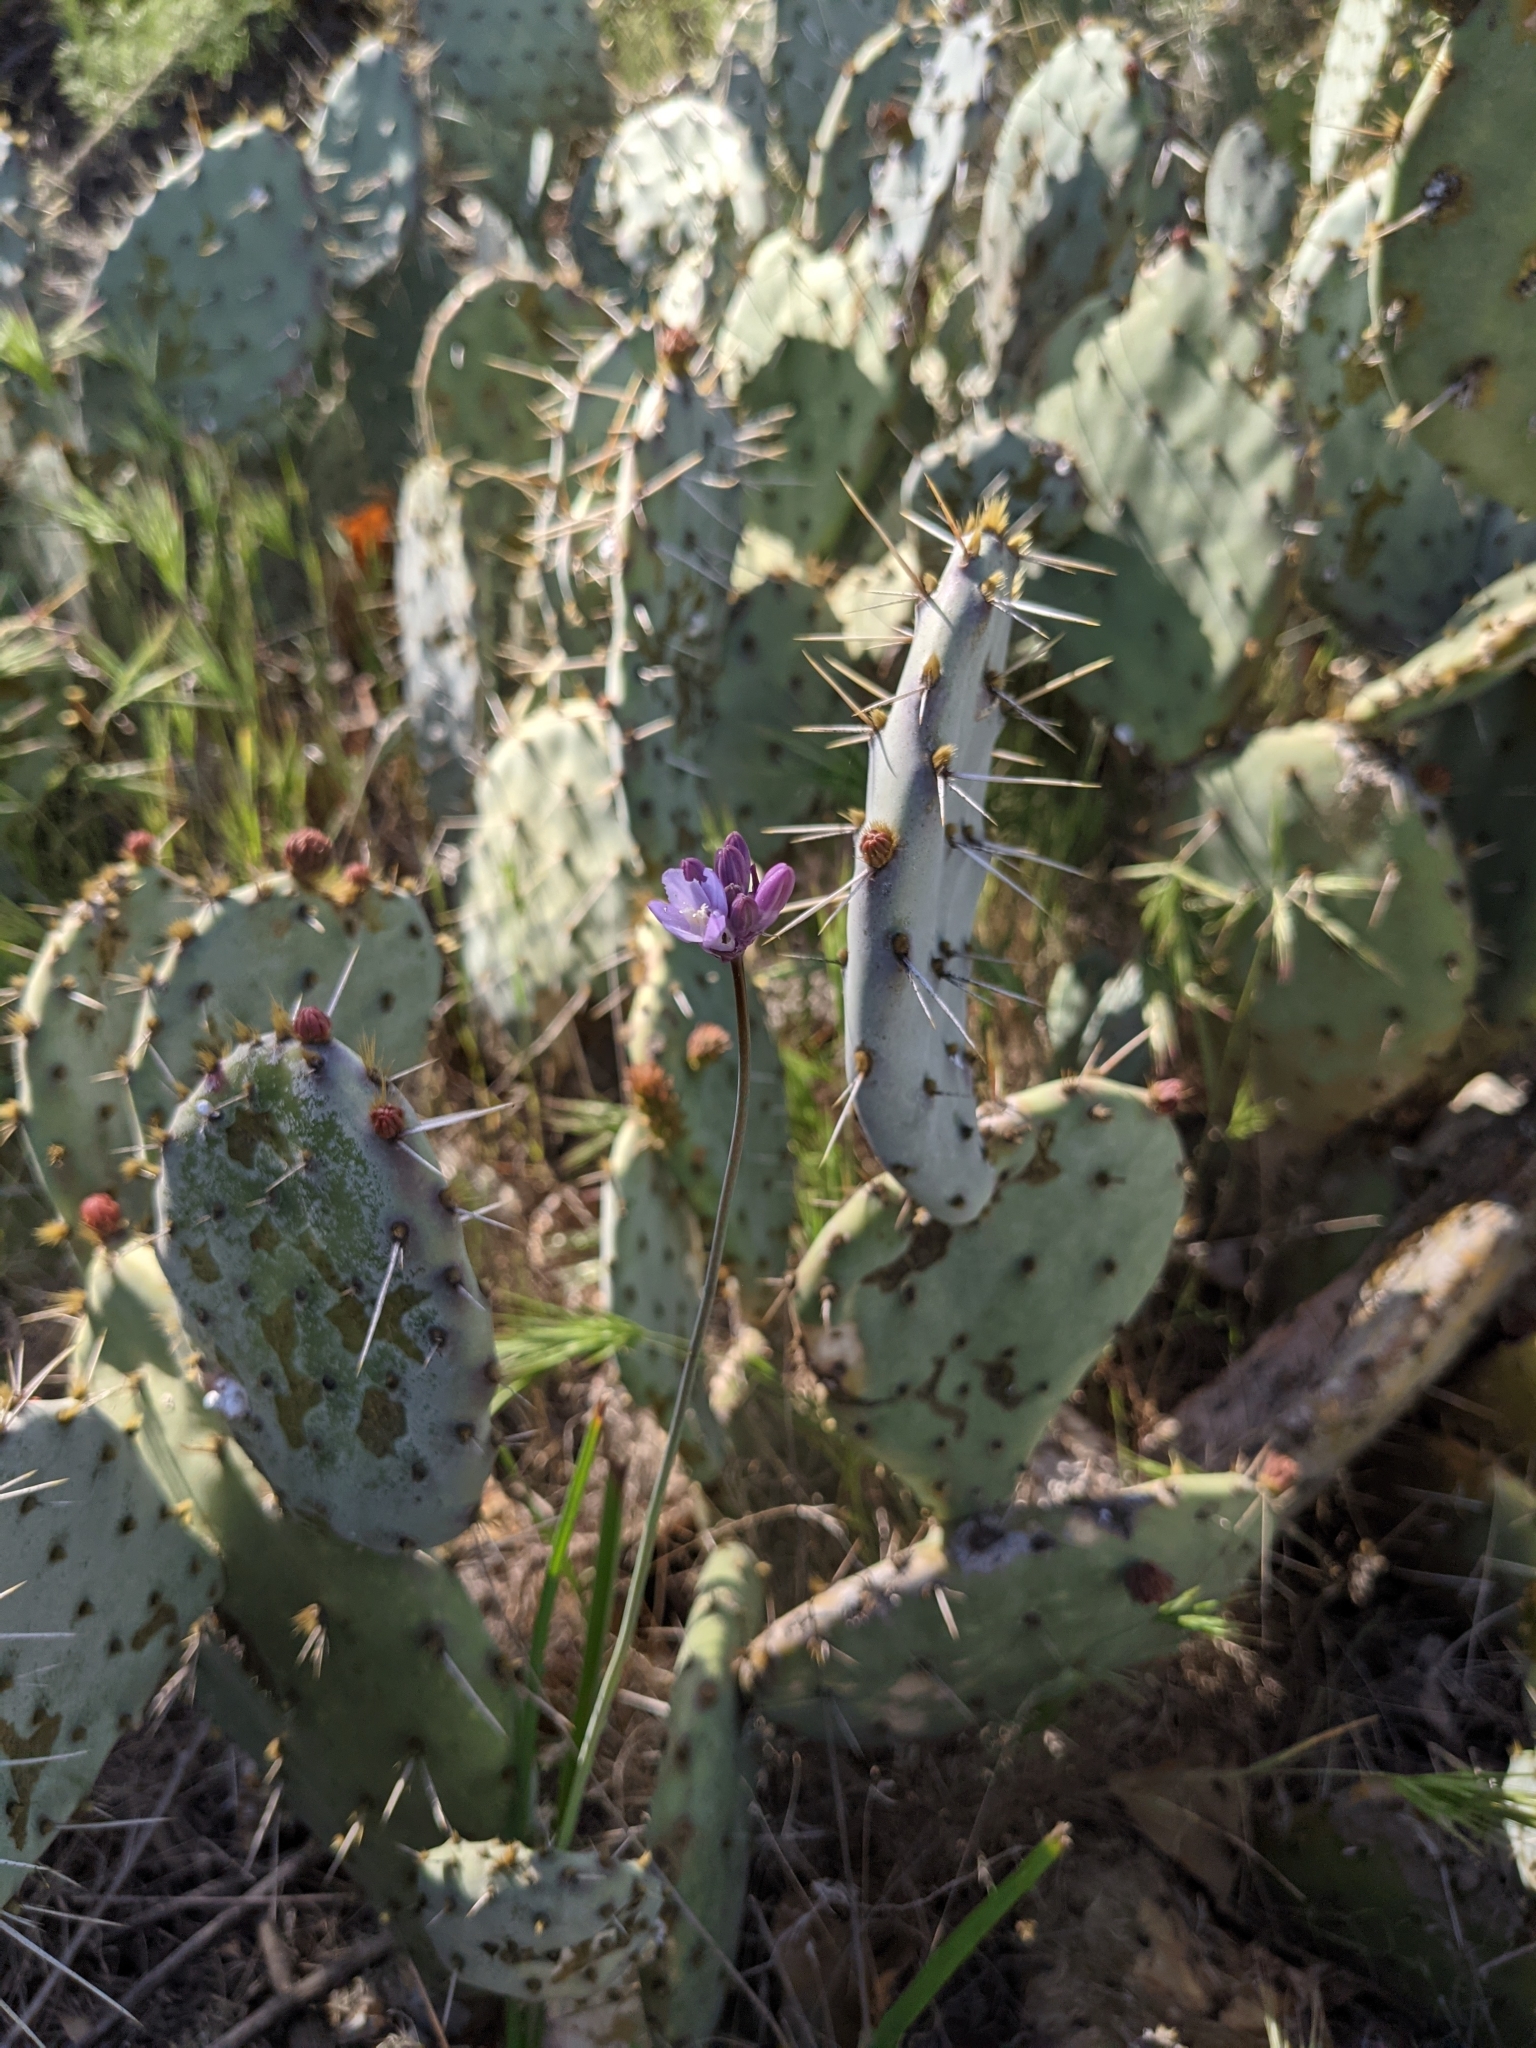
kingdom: Plantae
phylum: Tracheophyta
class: Magnoliopsida
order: Caryophyllales
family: Cactaceae
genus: Opuntia
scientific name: Opuntia littoralis
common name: Coastal prickly-pear
